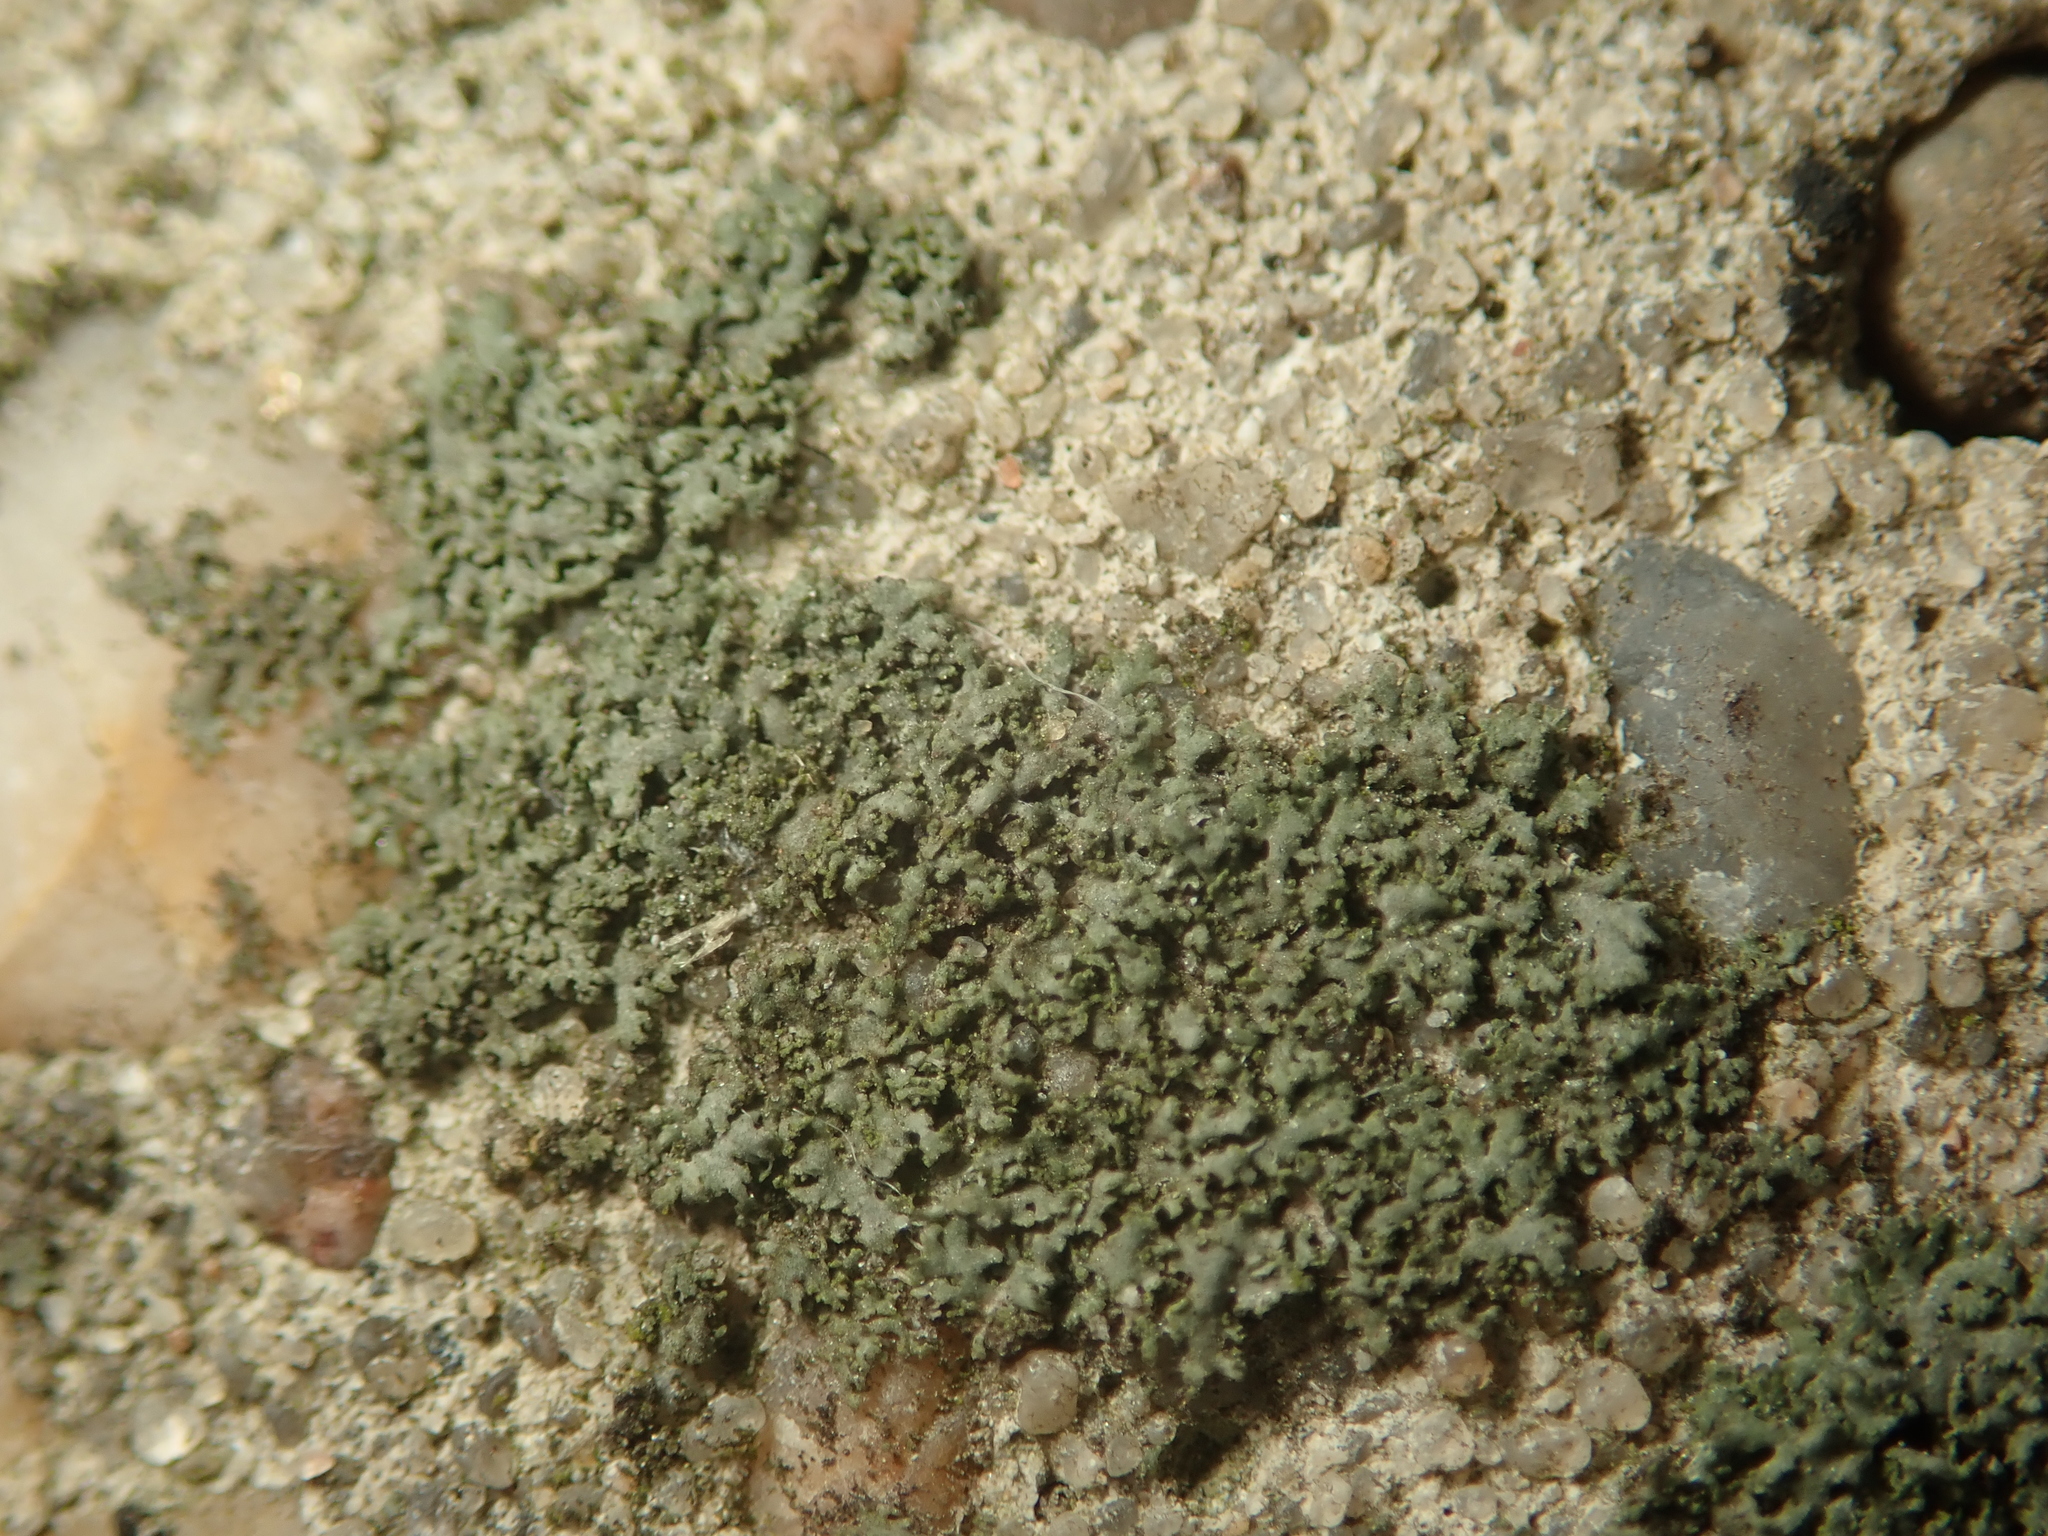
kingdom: Fungi
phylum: Ascomycota
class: Lecanoromycetes
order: Caliciales
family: Physciaceae
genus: Physciella
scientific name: Physciella nigricans
